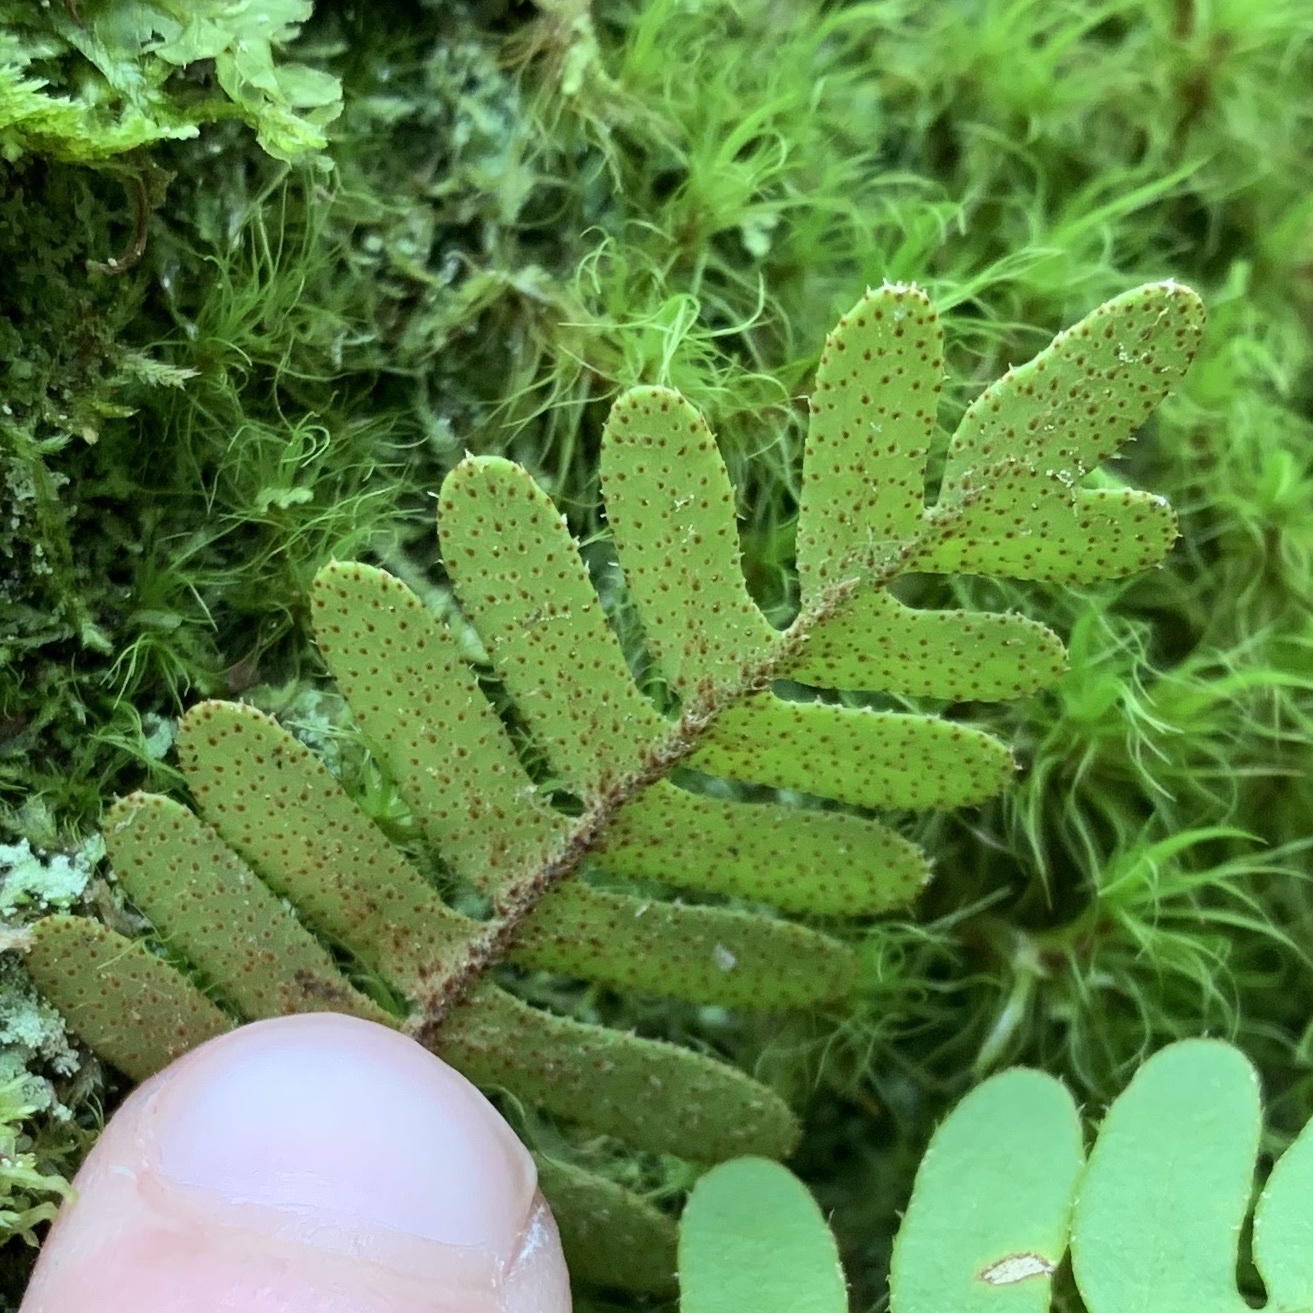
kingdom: Plantae
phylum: Tracheophyta
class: Polypodiopsida
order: Polypodiales
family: Polypodiaceae
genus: Pleopeltis
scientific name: Pleopeltis michauxiana
